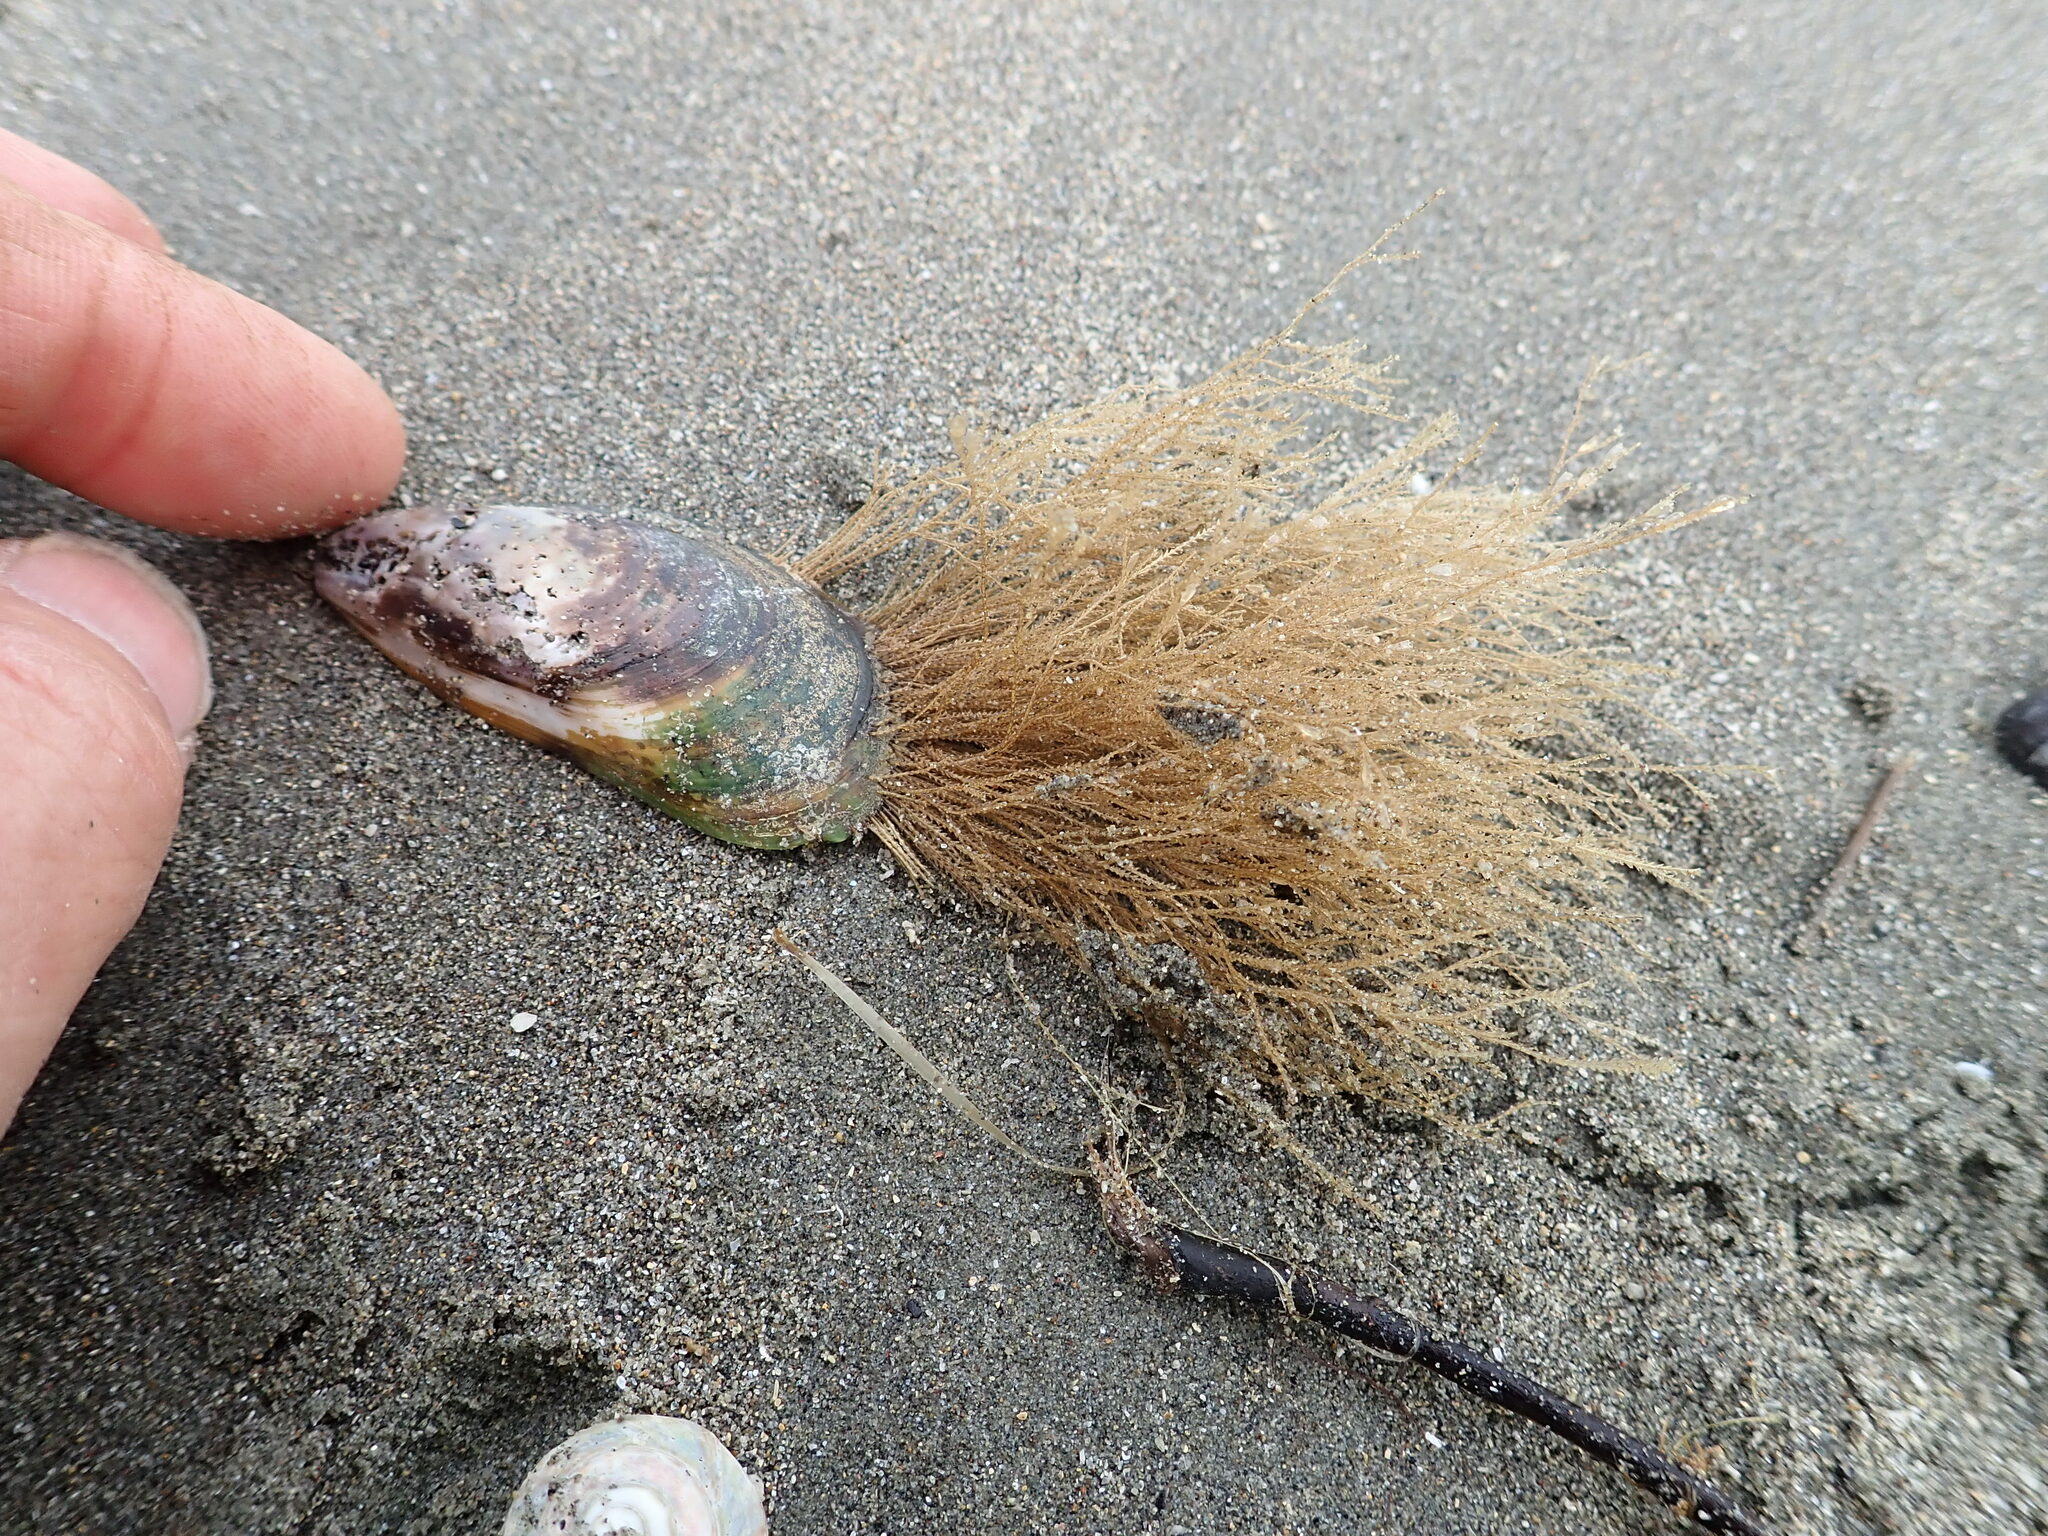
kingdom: Animalia
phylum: Cnidaria
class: Hydrozoa
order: Leptothecata
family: Sertulariidae
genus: Amphisbetia
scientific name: Amphisbetia bispinosa
